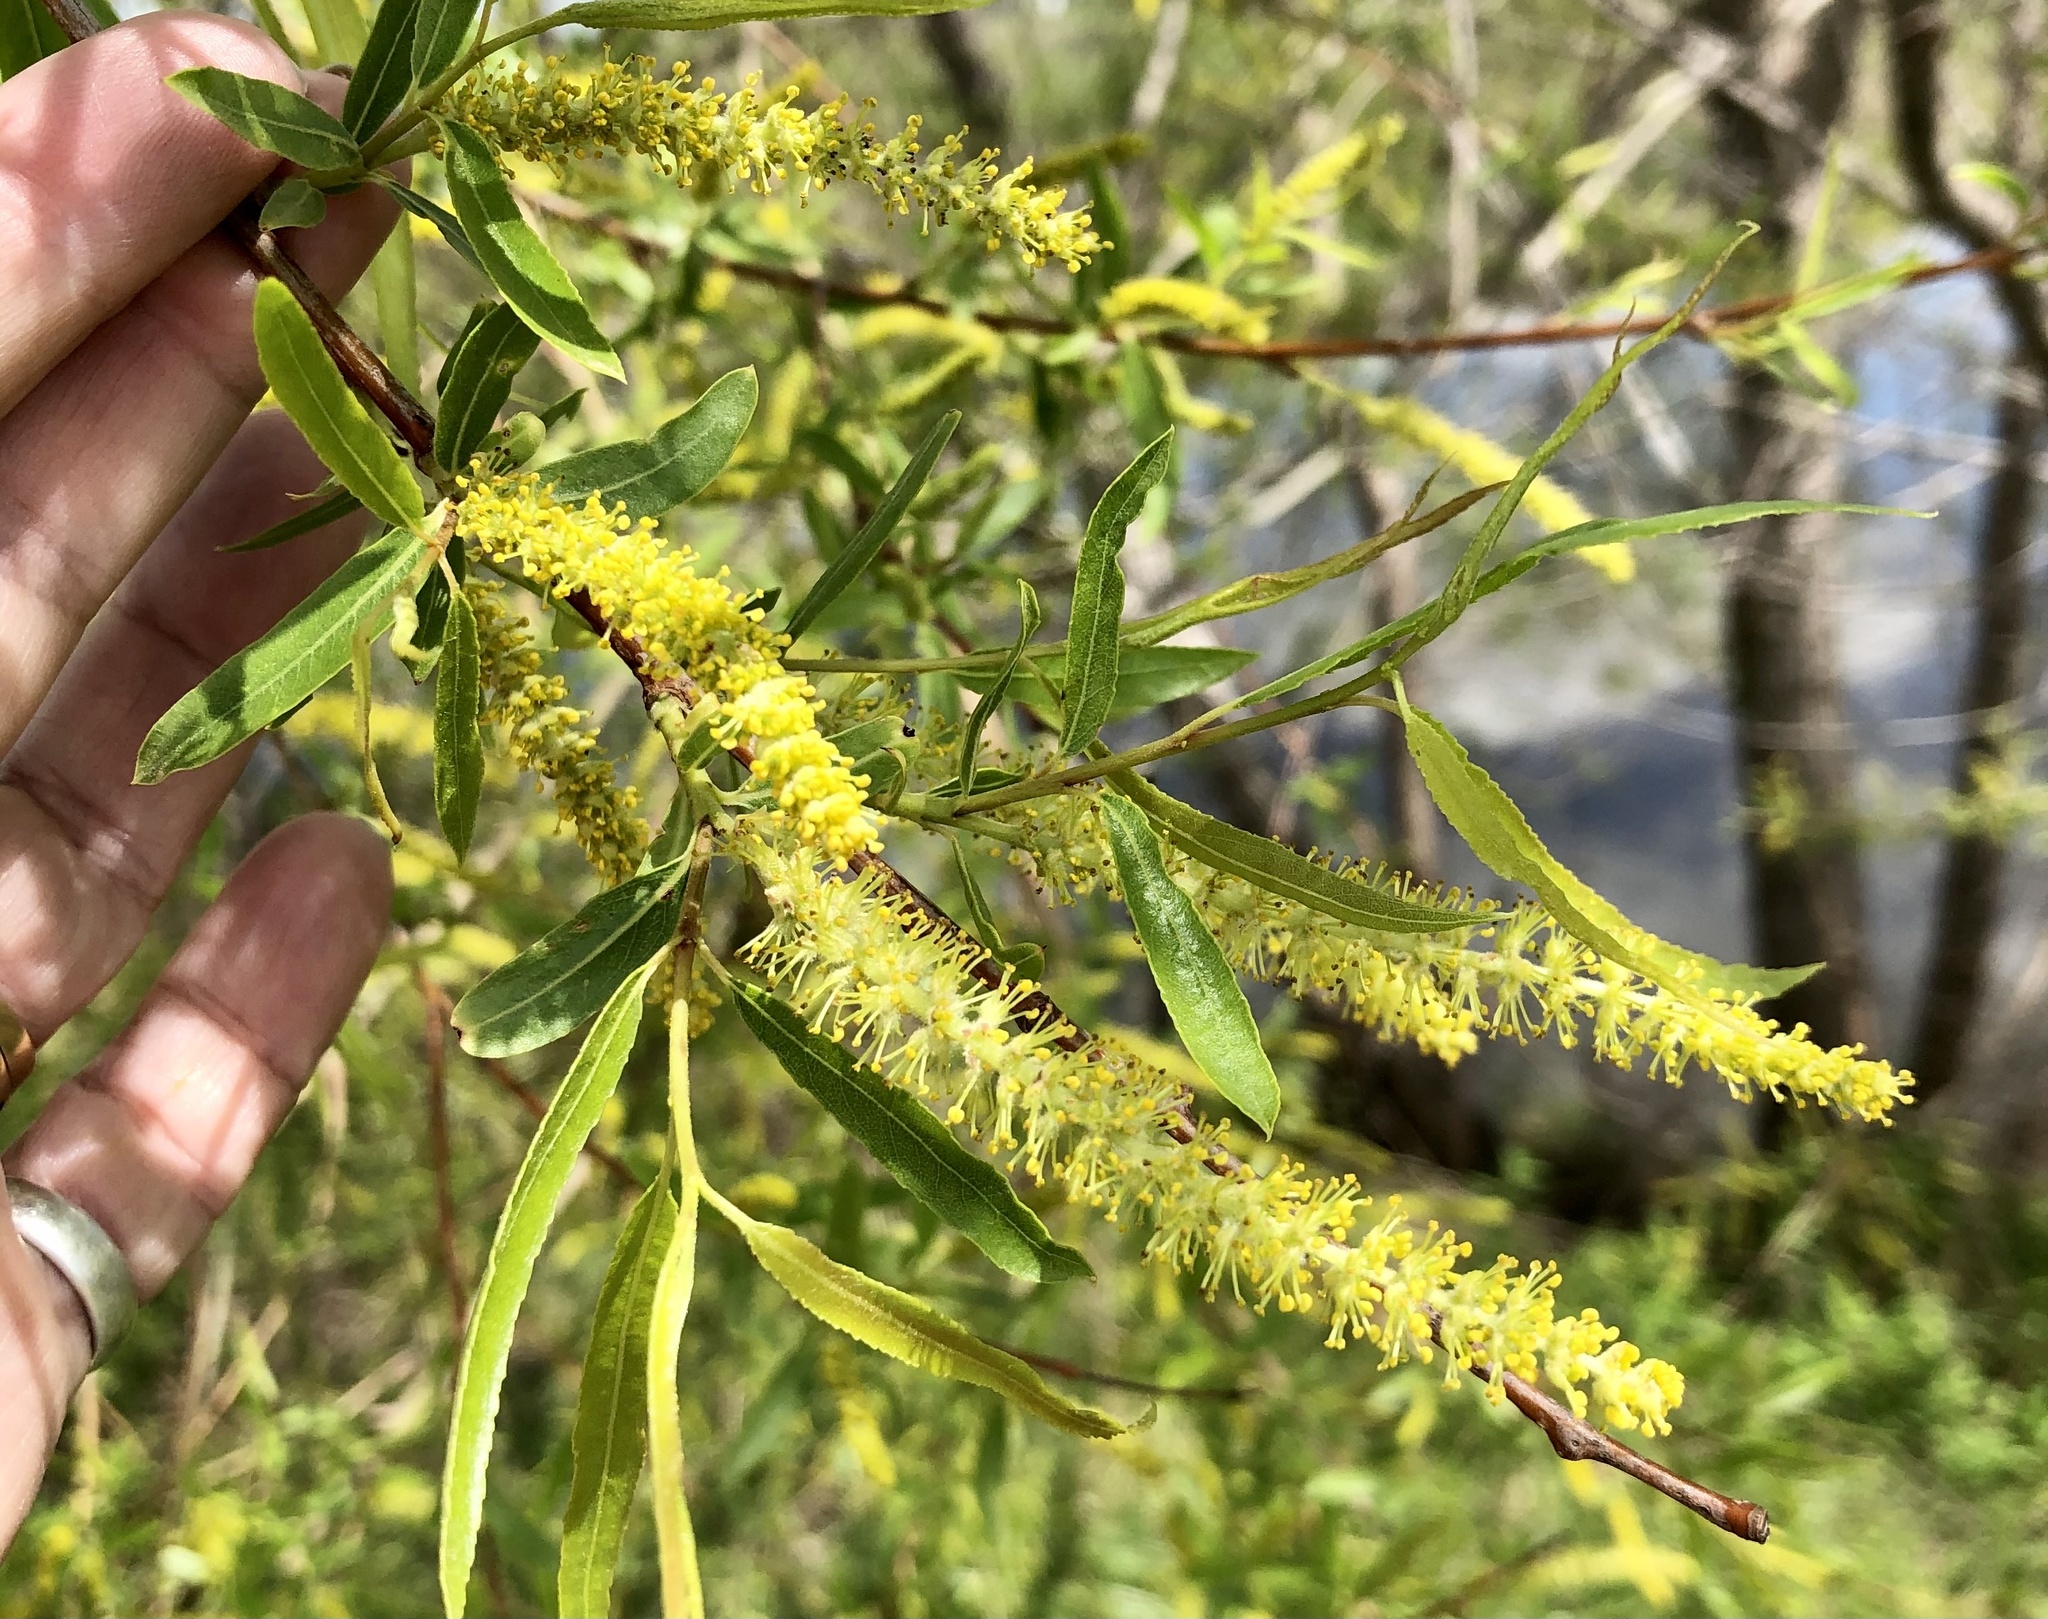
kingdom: Plantae
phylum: Tracheophyta
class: Magnoliopsida
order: Malpighiales
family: Salicaceae
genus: Salix
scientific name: Salix nigra
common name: Black willow
